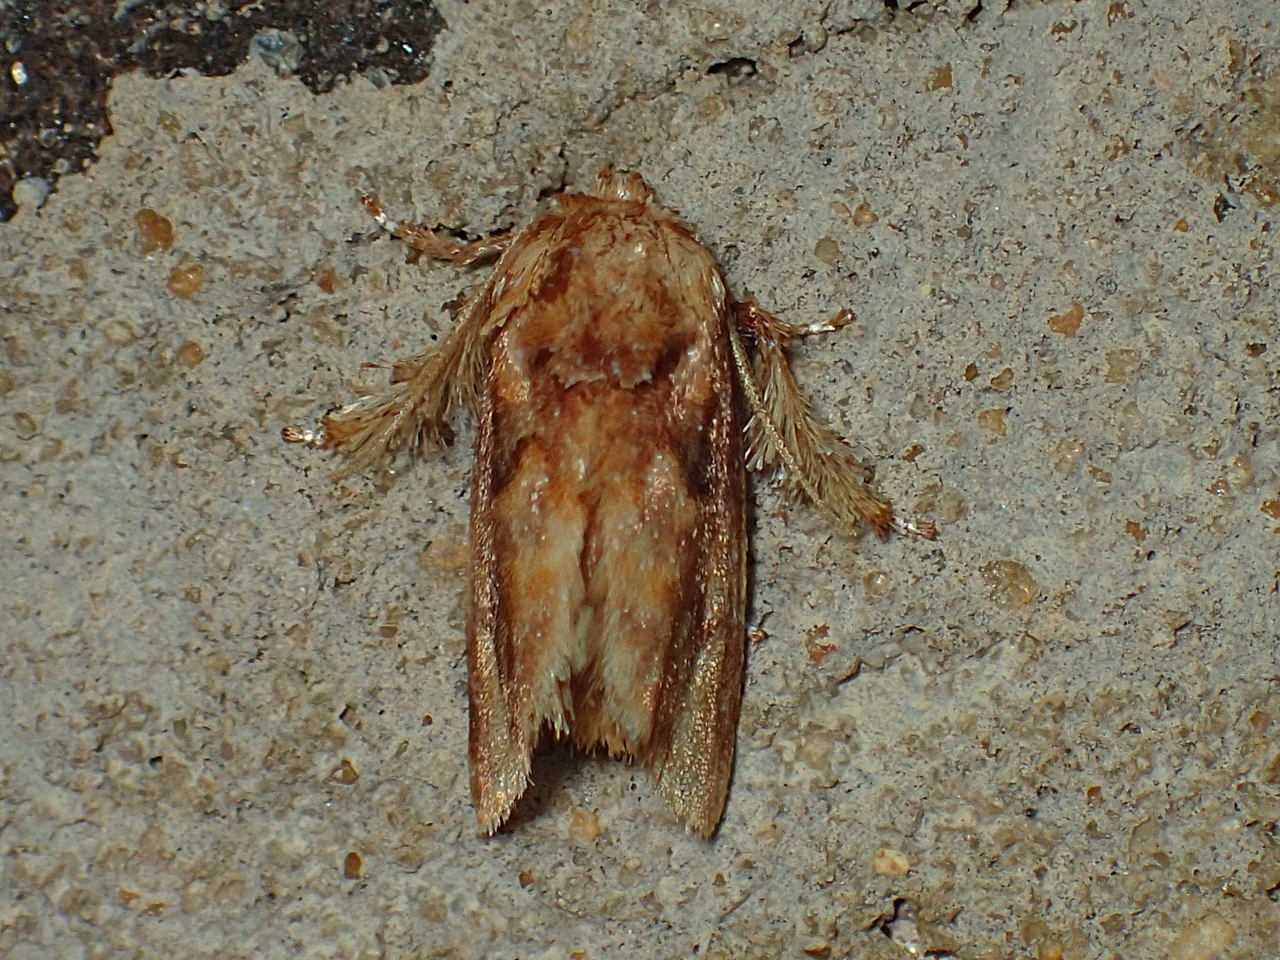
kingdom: Animalia
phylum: Arthropoda
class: Insecta
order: Lepidoptera
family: Limacodidae
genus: Isochaetes
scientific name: Isochaetes beutenmuelleri
